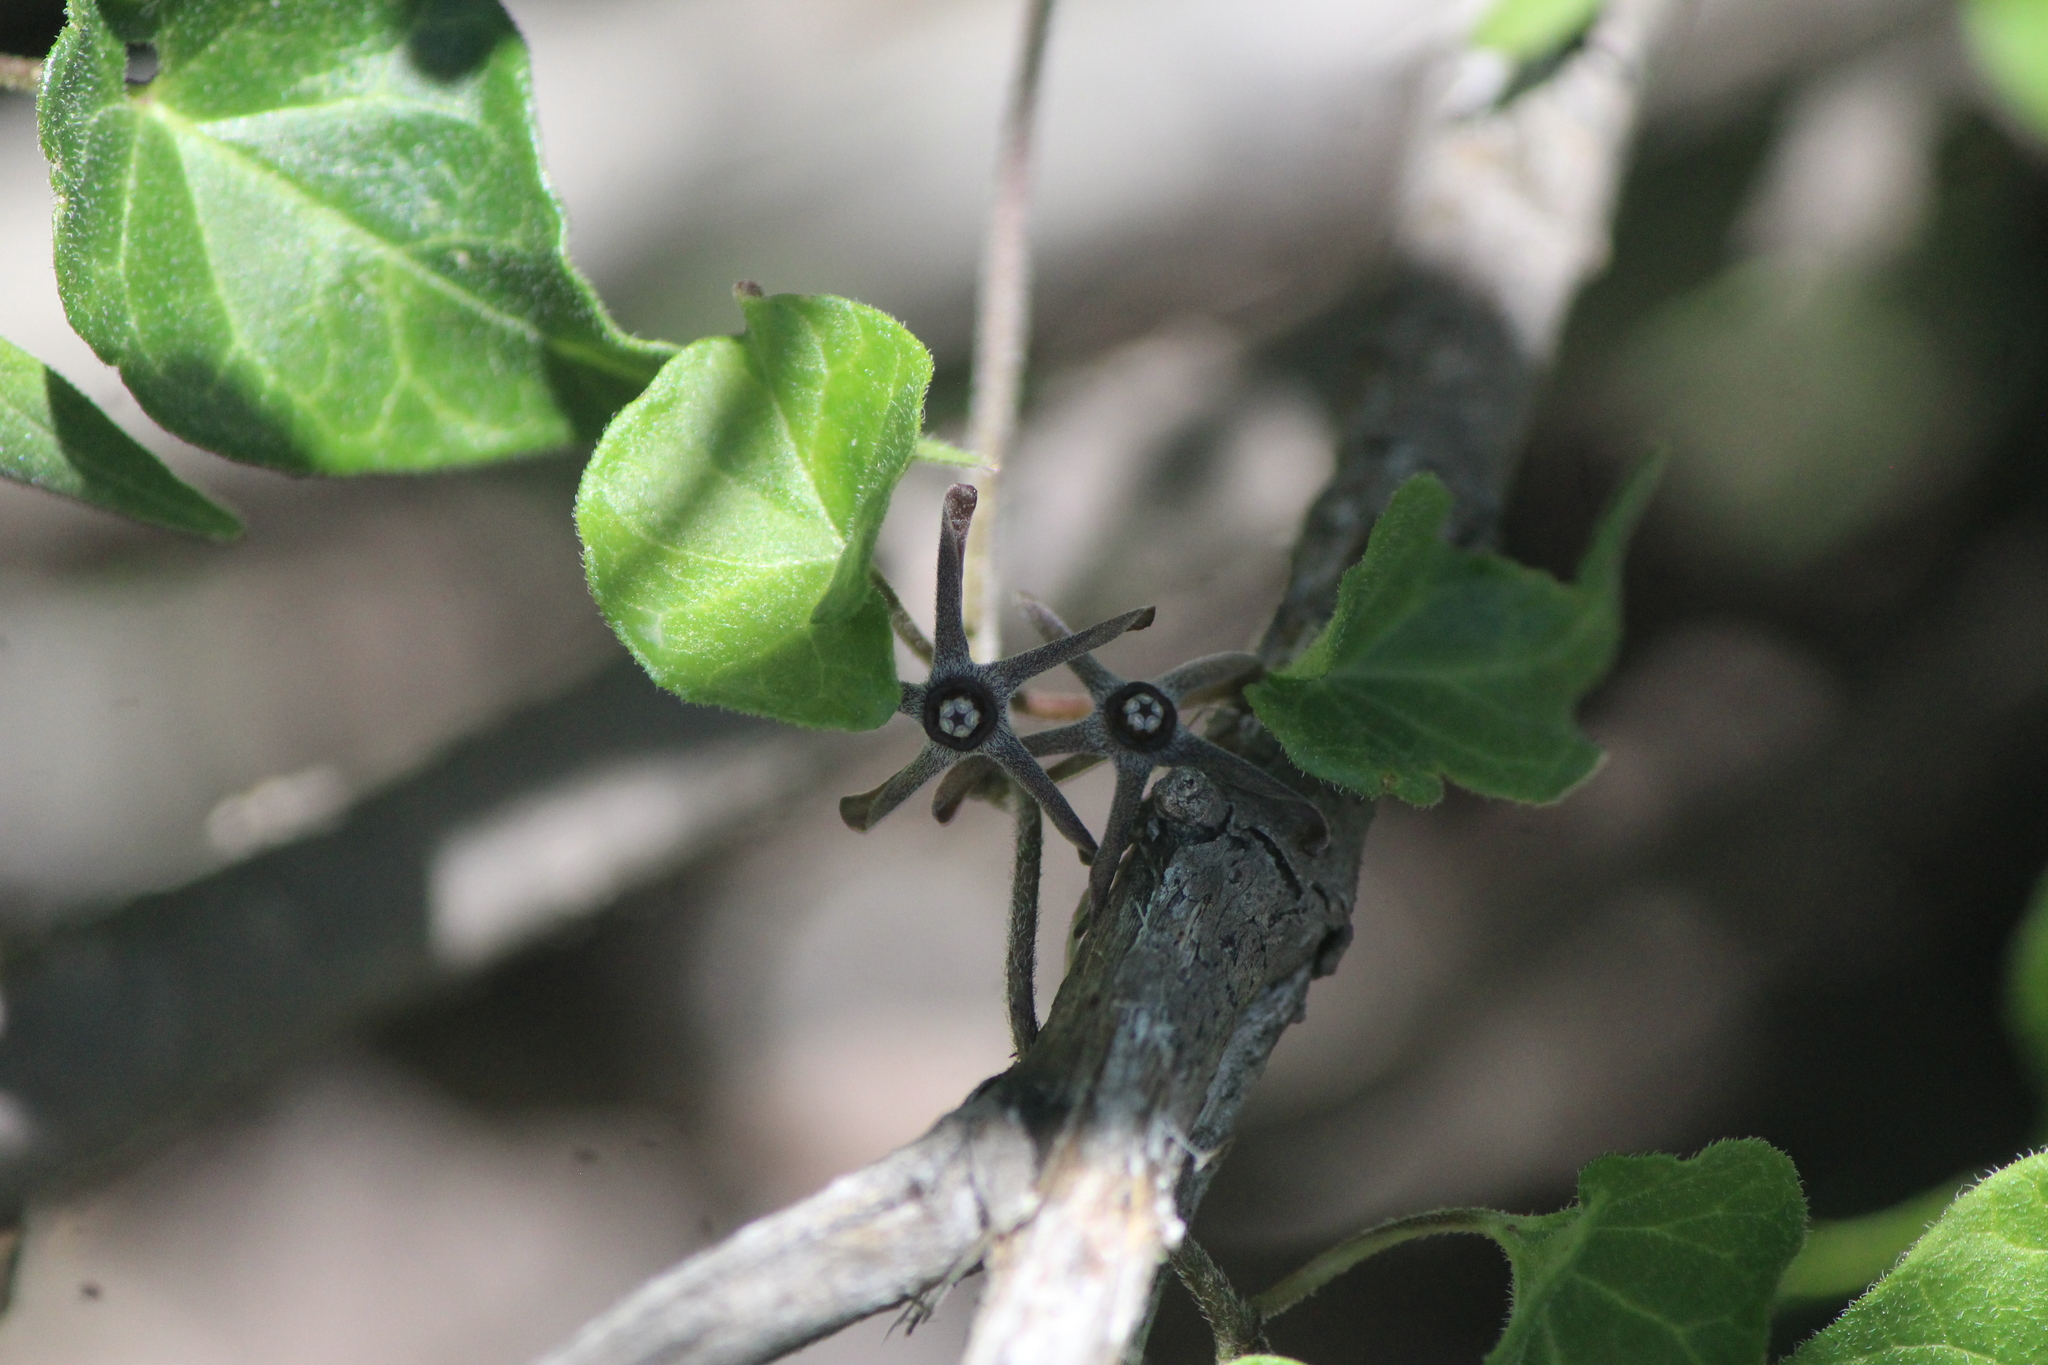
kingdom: Plantae
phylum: Tracheophyta
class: Magnoliopsida
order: Gentianales
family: Apocynaceae
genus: Chthamalia
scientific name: Chthamalia ojadapantha
